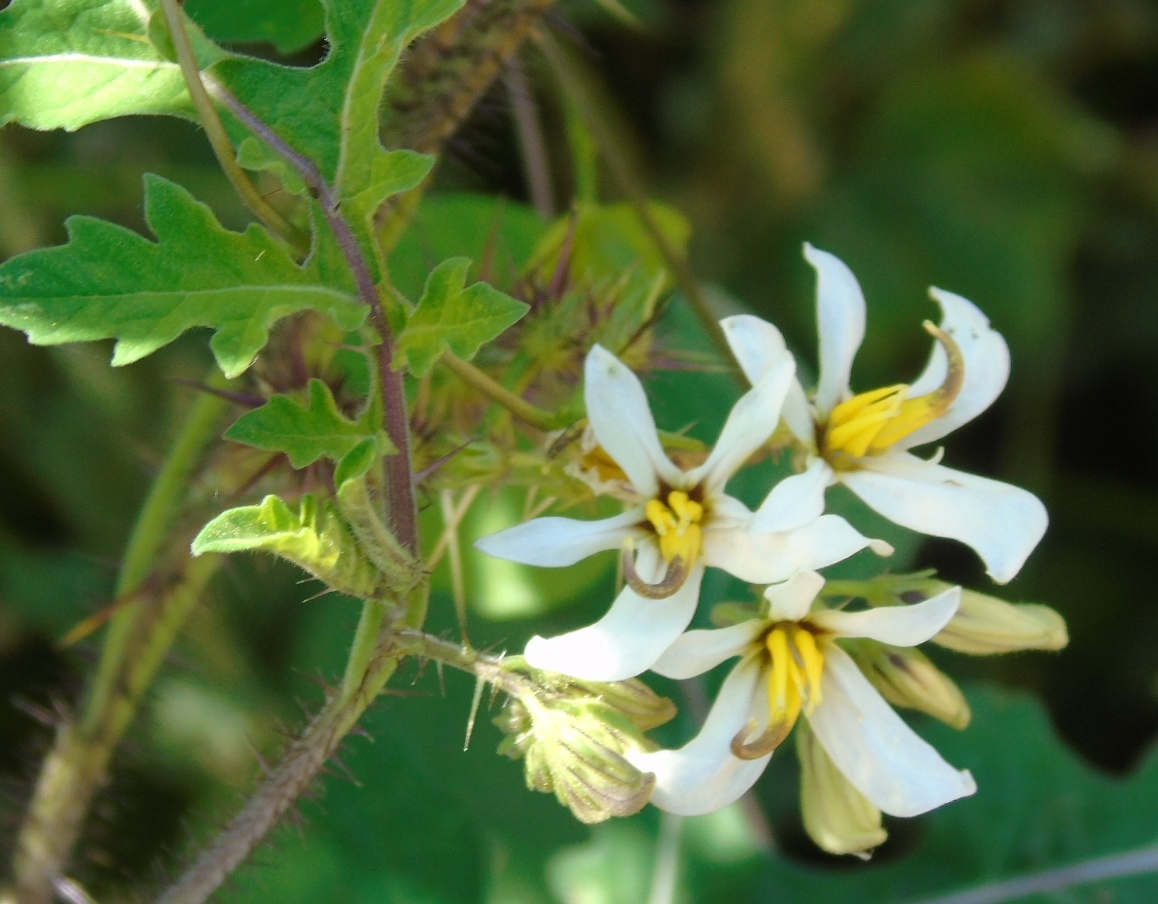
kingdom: Plantae
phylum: Tracheophyta
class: Magnoliopsida
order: Solanales
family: Solanaceae
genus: Solanum
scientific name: Solanum grayi
